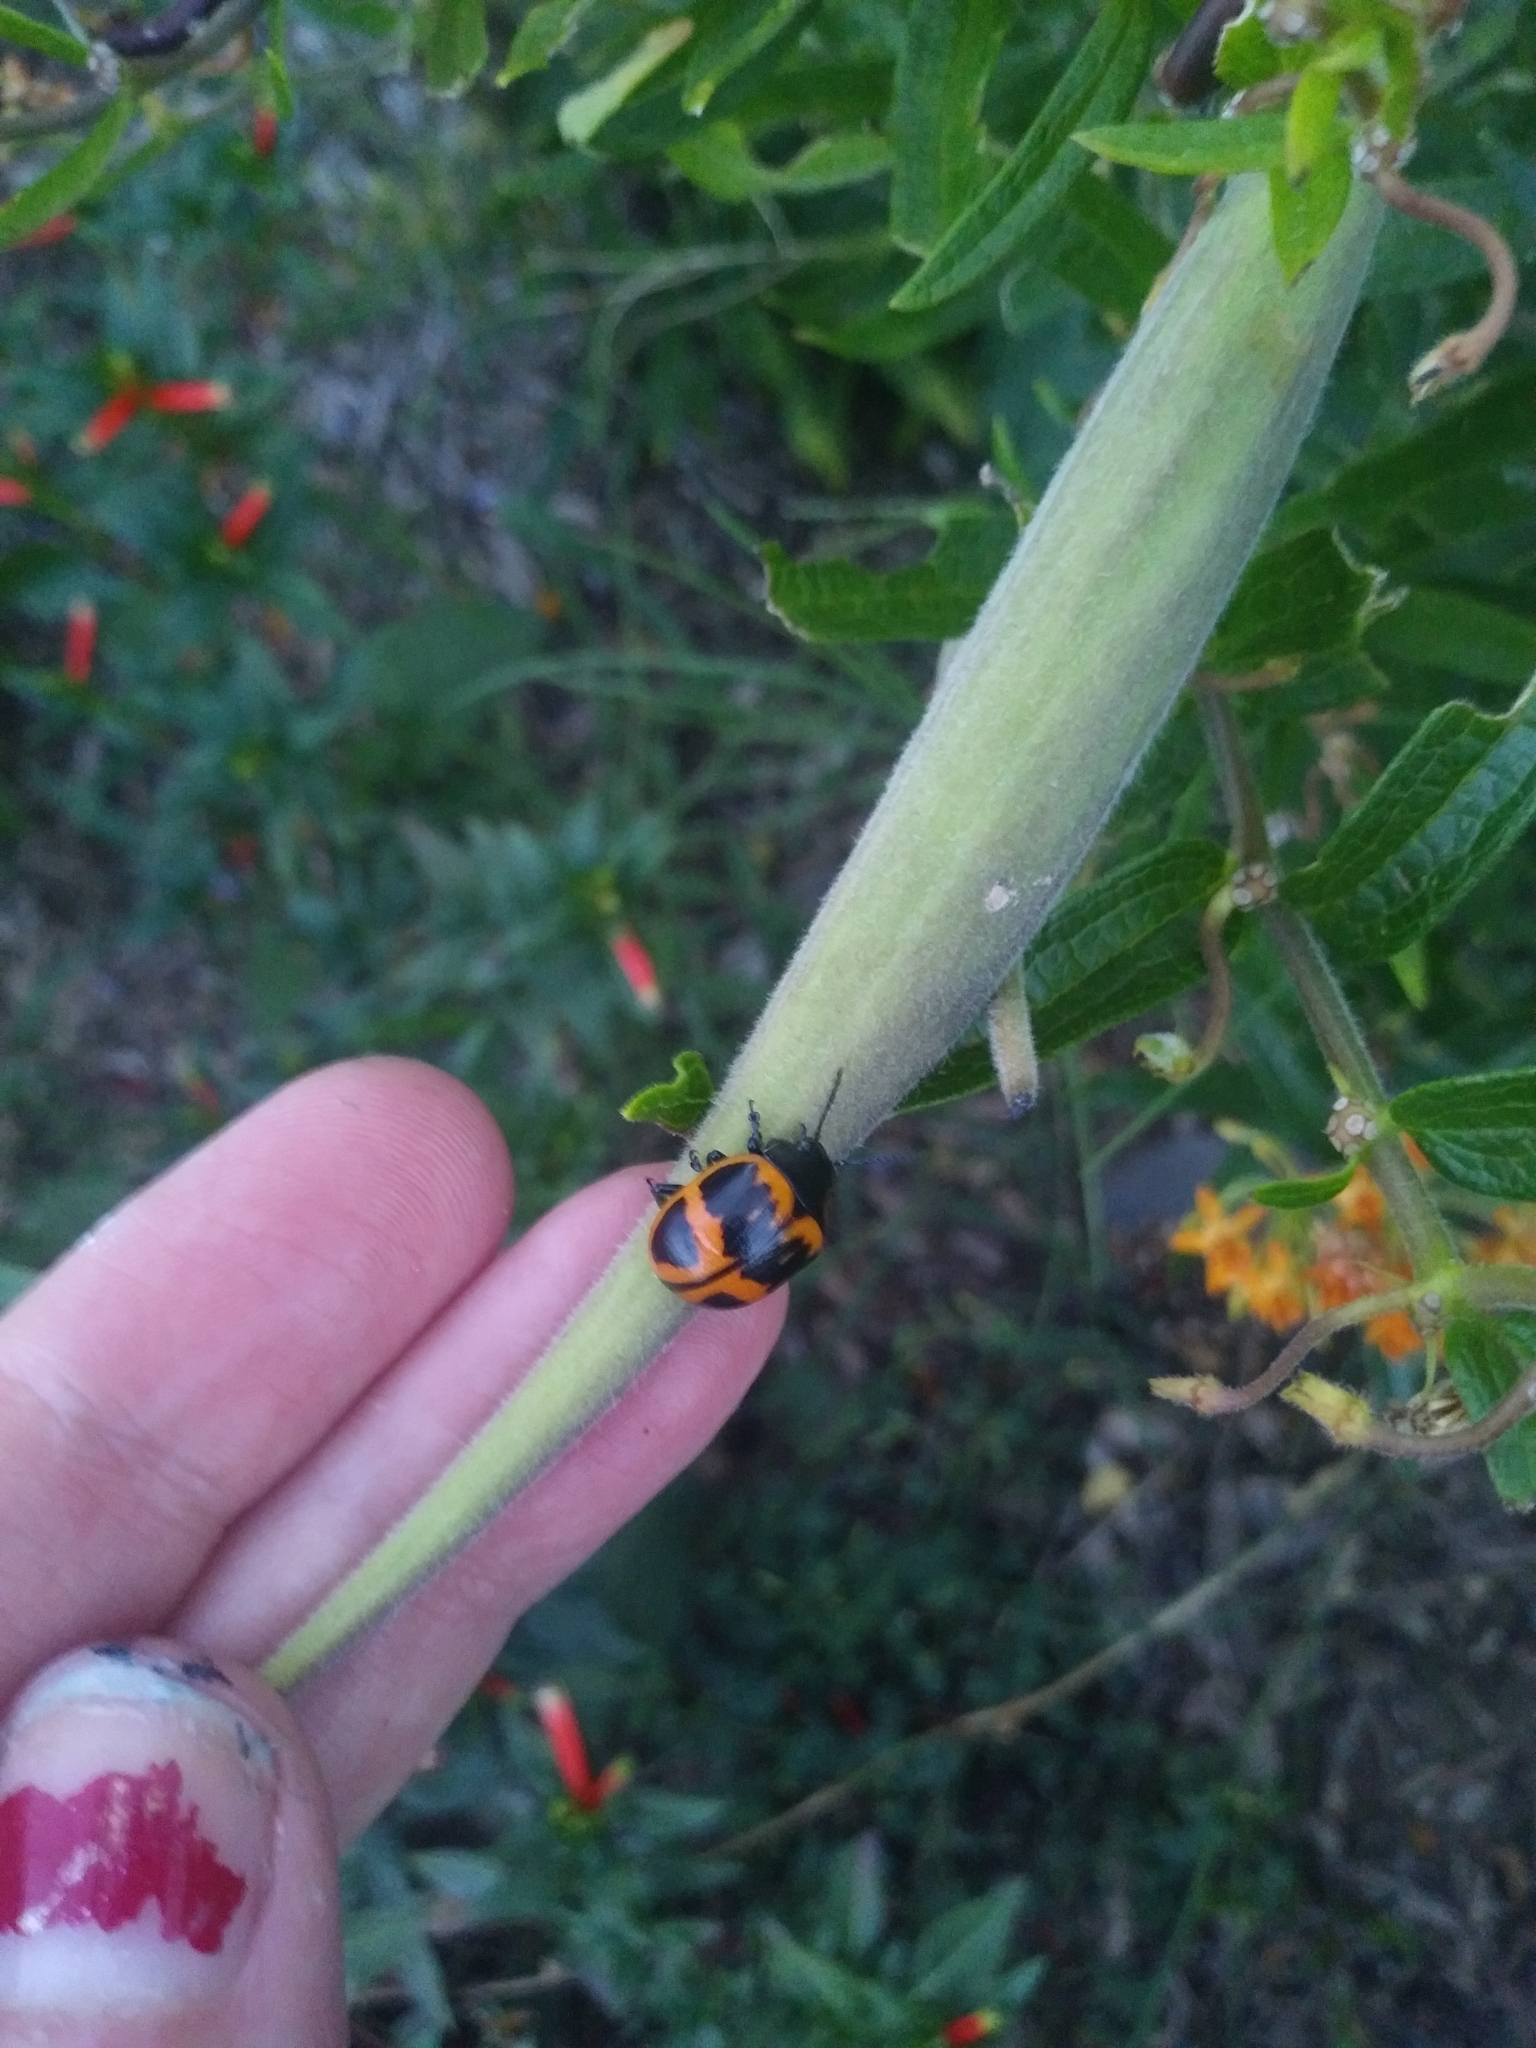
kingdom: Animalia
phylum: Arthropoda
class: Insecta
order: Coleoptera
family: Chrysomelidae
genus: Labidomera
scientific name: Labidomera clivicollis
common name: Swamp milkweed leaf beetle
